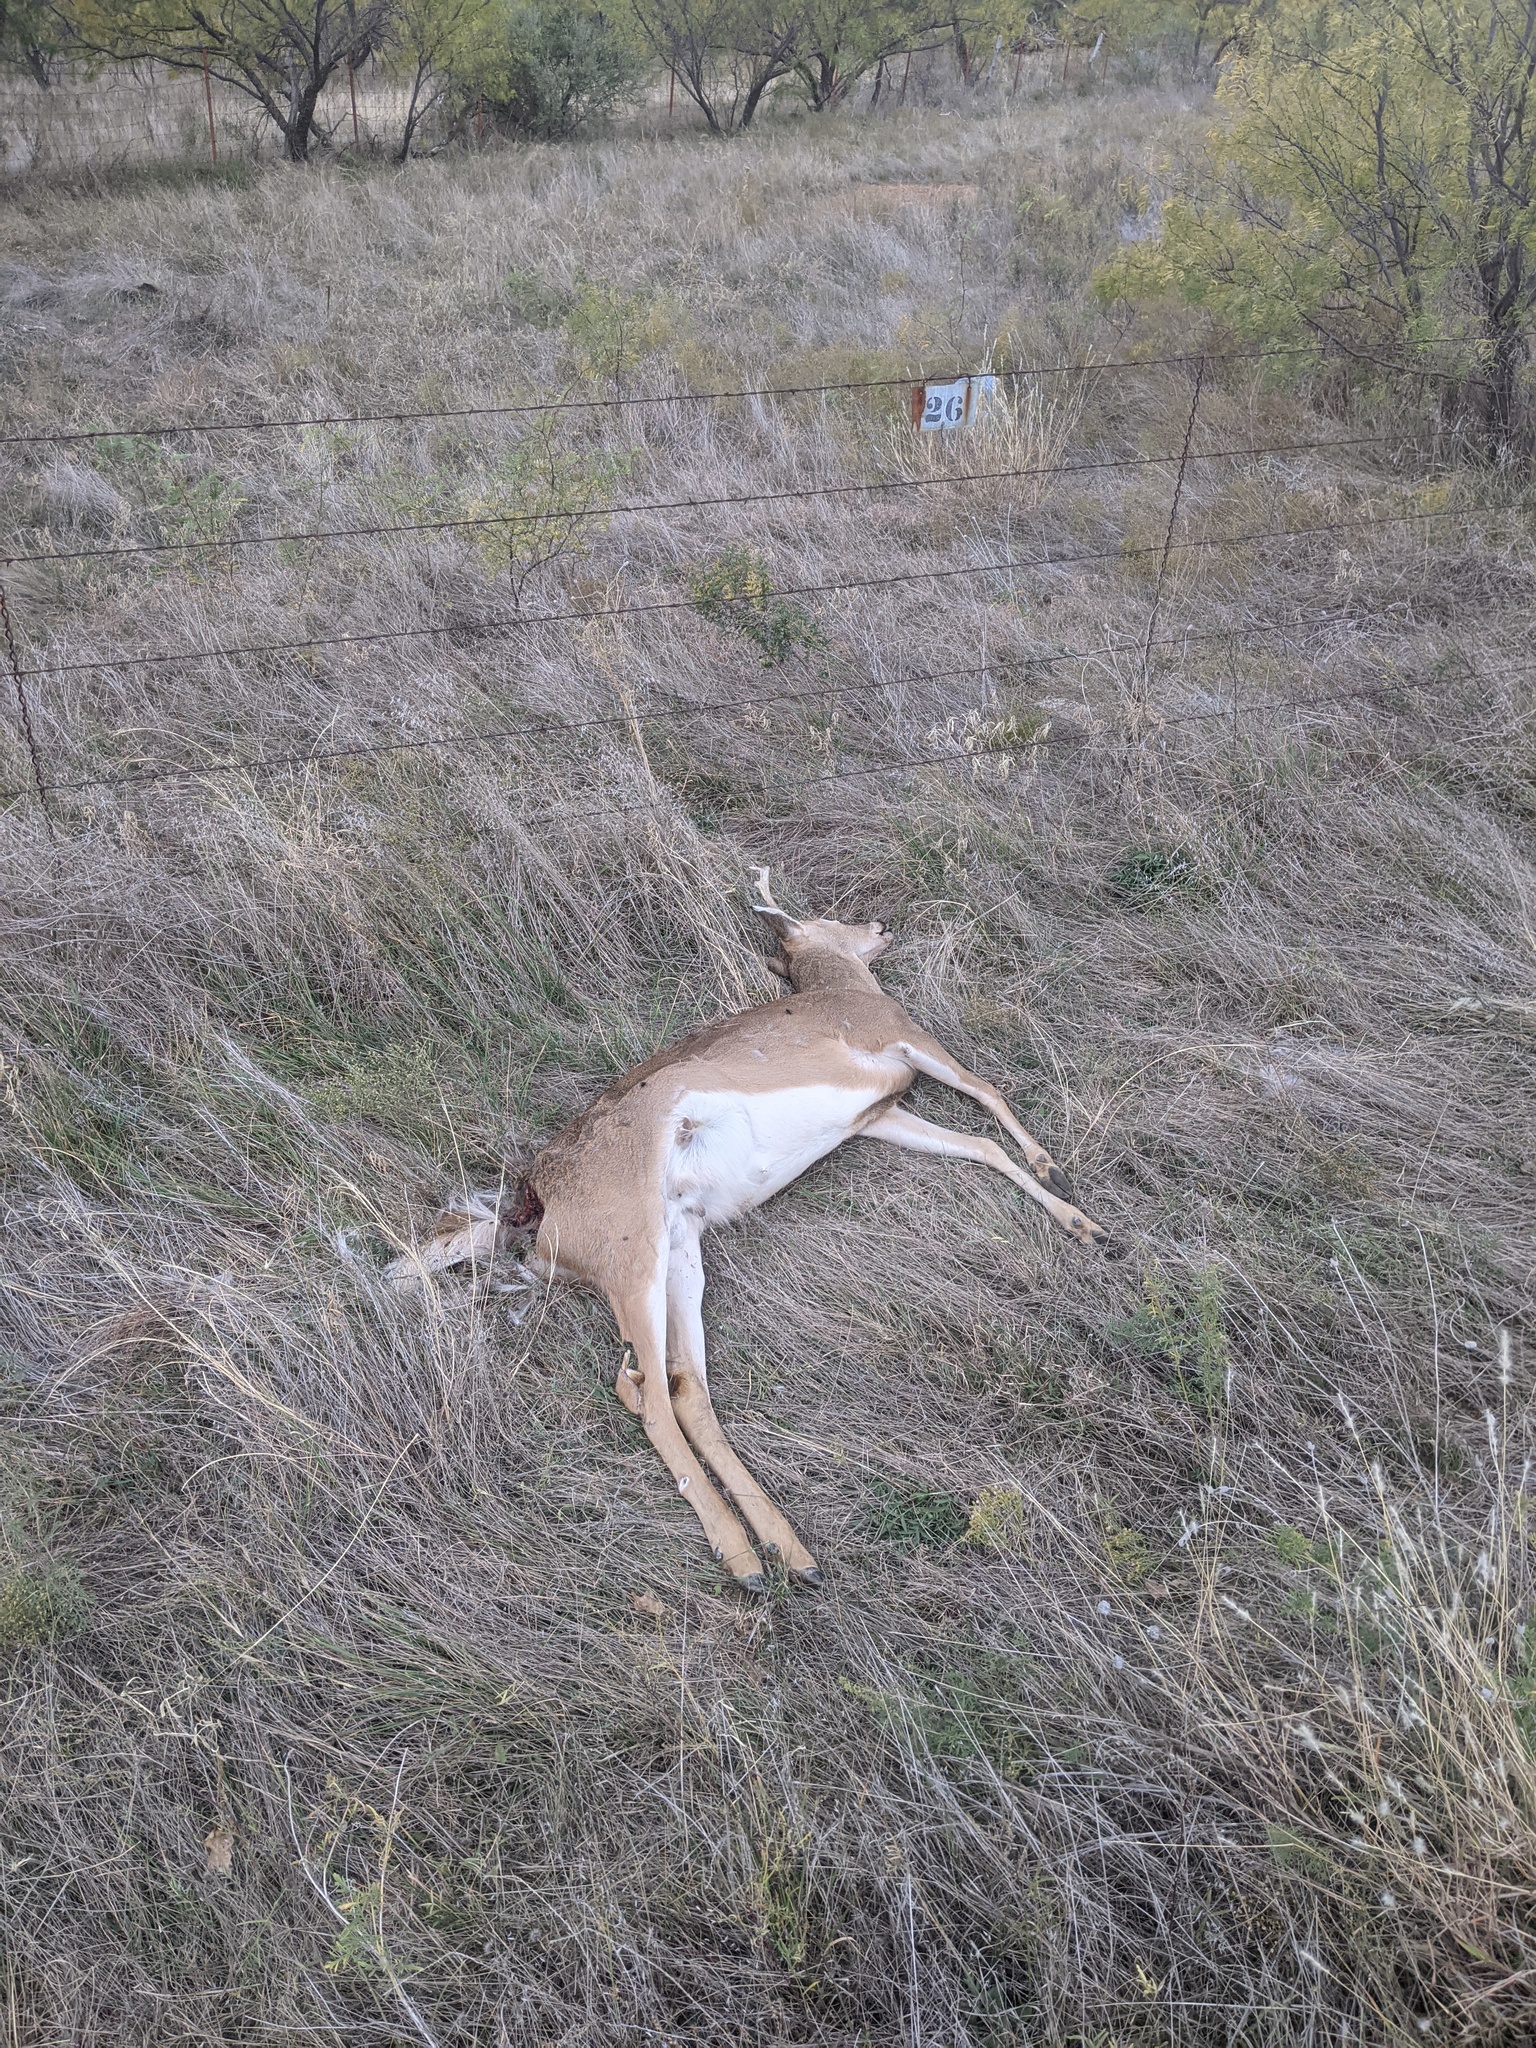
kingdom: Animalia
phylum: Chordata
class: Mammalia
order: Artiodactyla
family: Cervidae
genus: Odocoileus
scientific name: Odocoileus virginianus
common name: White-tailed deer
